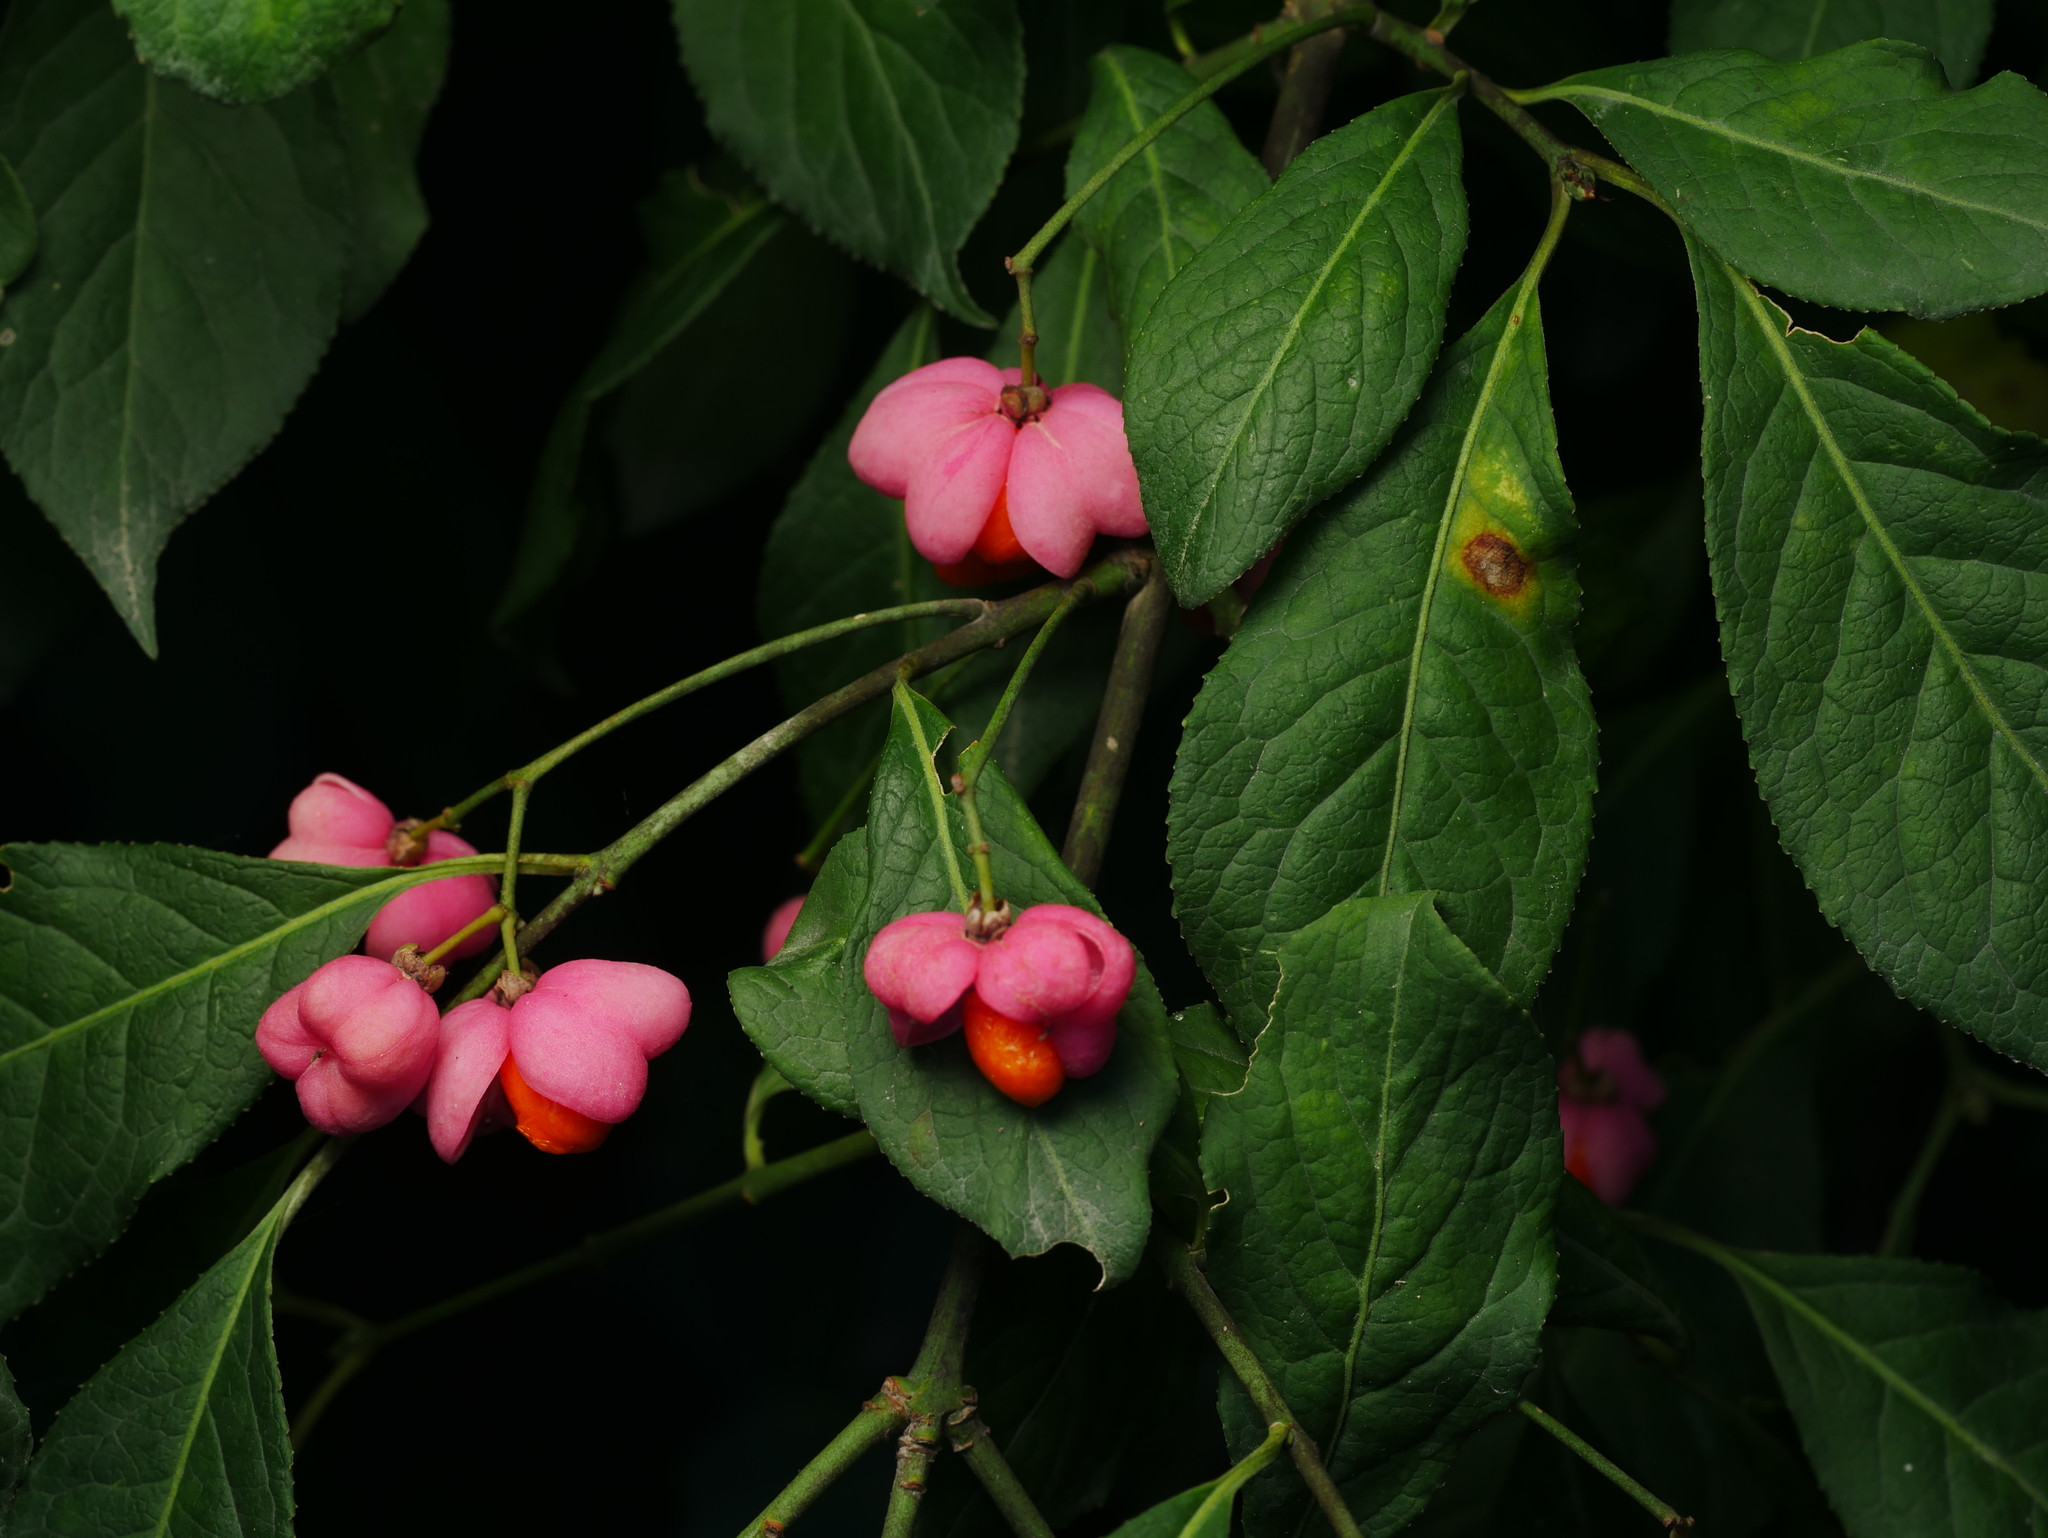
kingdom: Plantae
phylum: Tracheophyta
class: Magnoliopsida
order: Celastrales
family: Celastraceae
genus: Euonymus
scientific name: Euonymus europaeus
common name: Spindle
